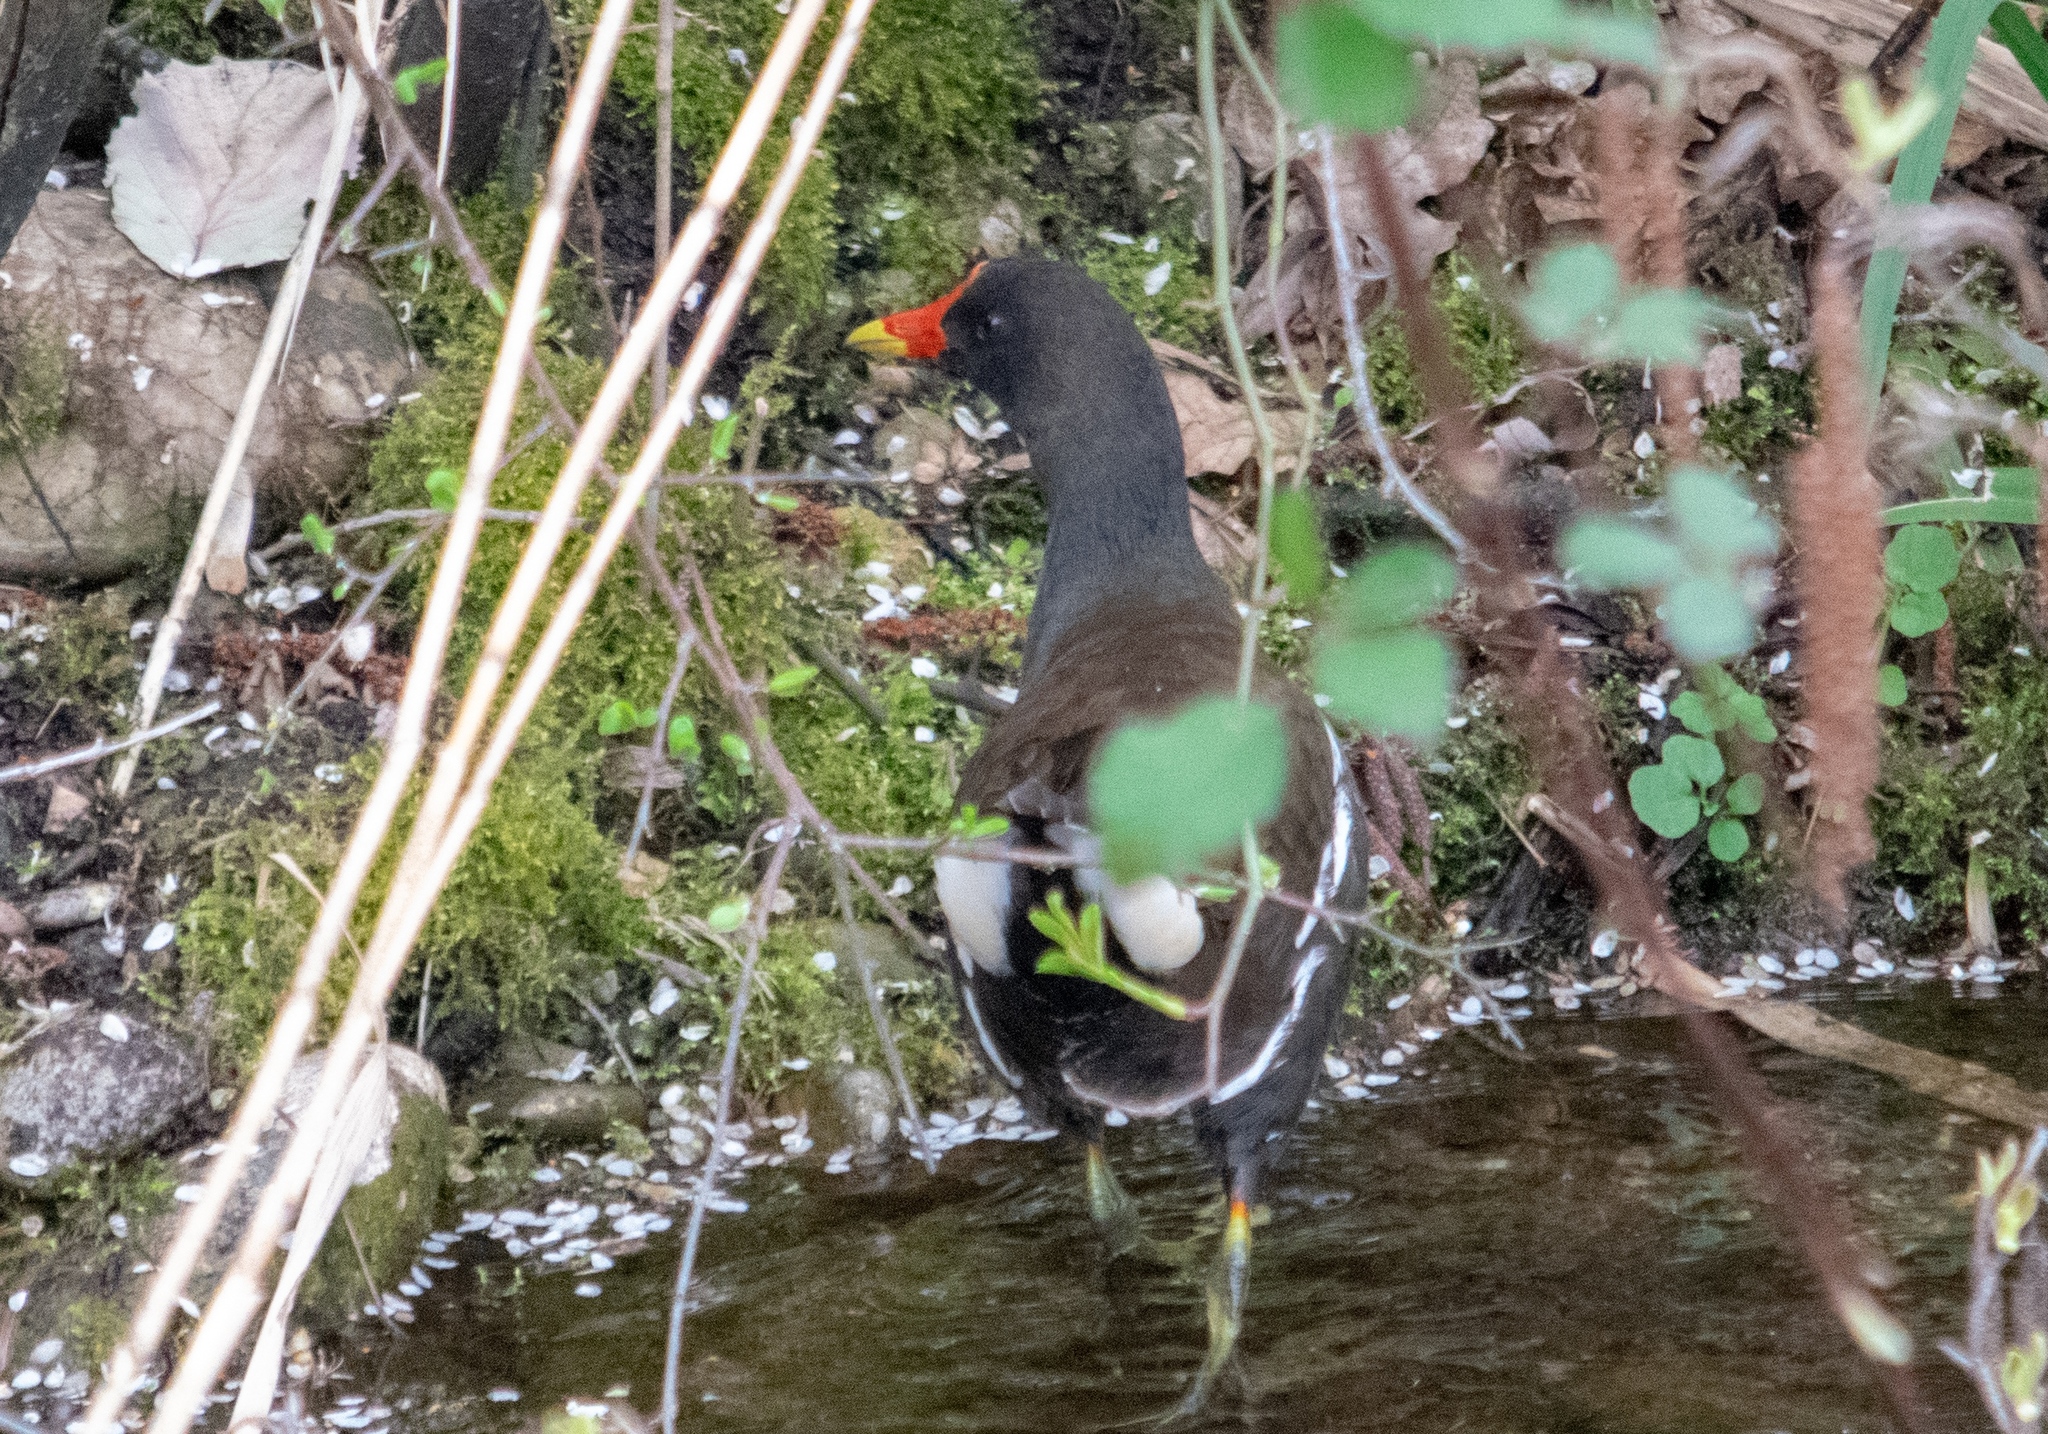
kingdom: Animalia
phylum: Chordata
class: Aves
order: Gruiformes
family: Rallidae
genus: Gallinula
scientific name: Gallinula chloropus
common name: Common moorhen
